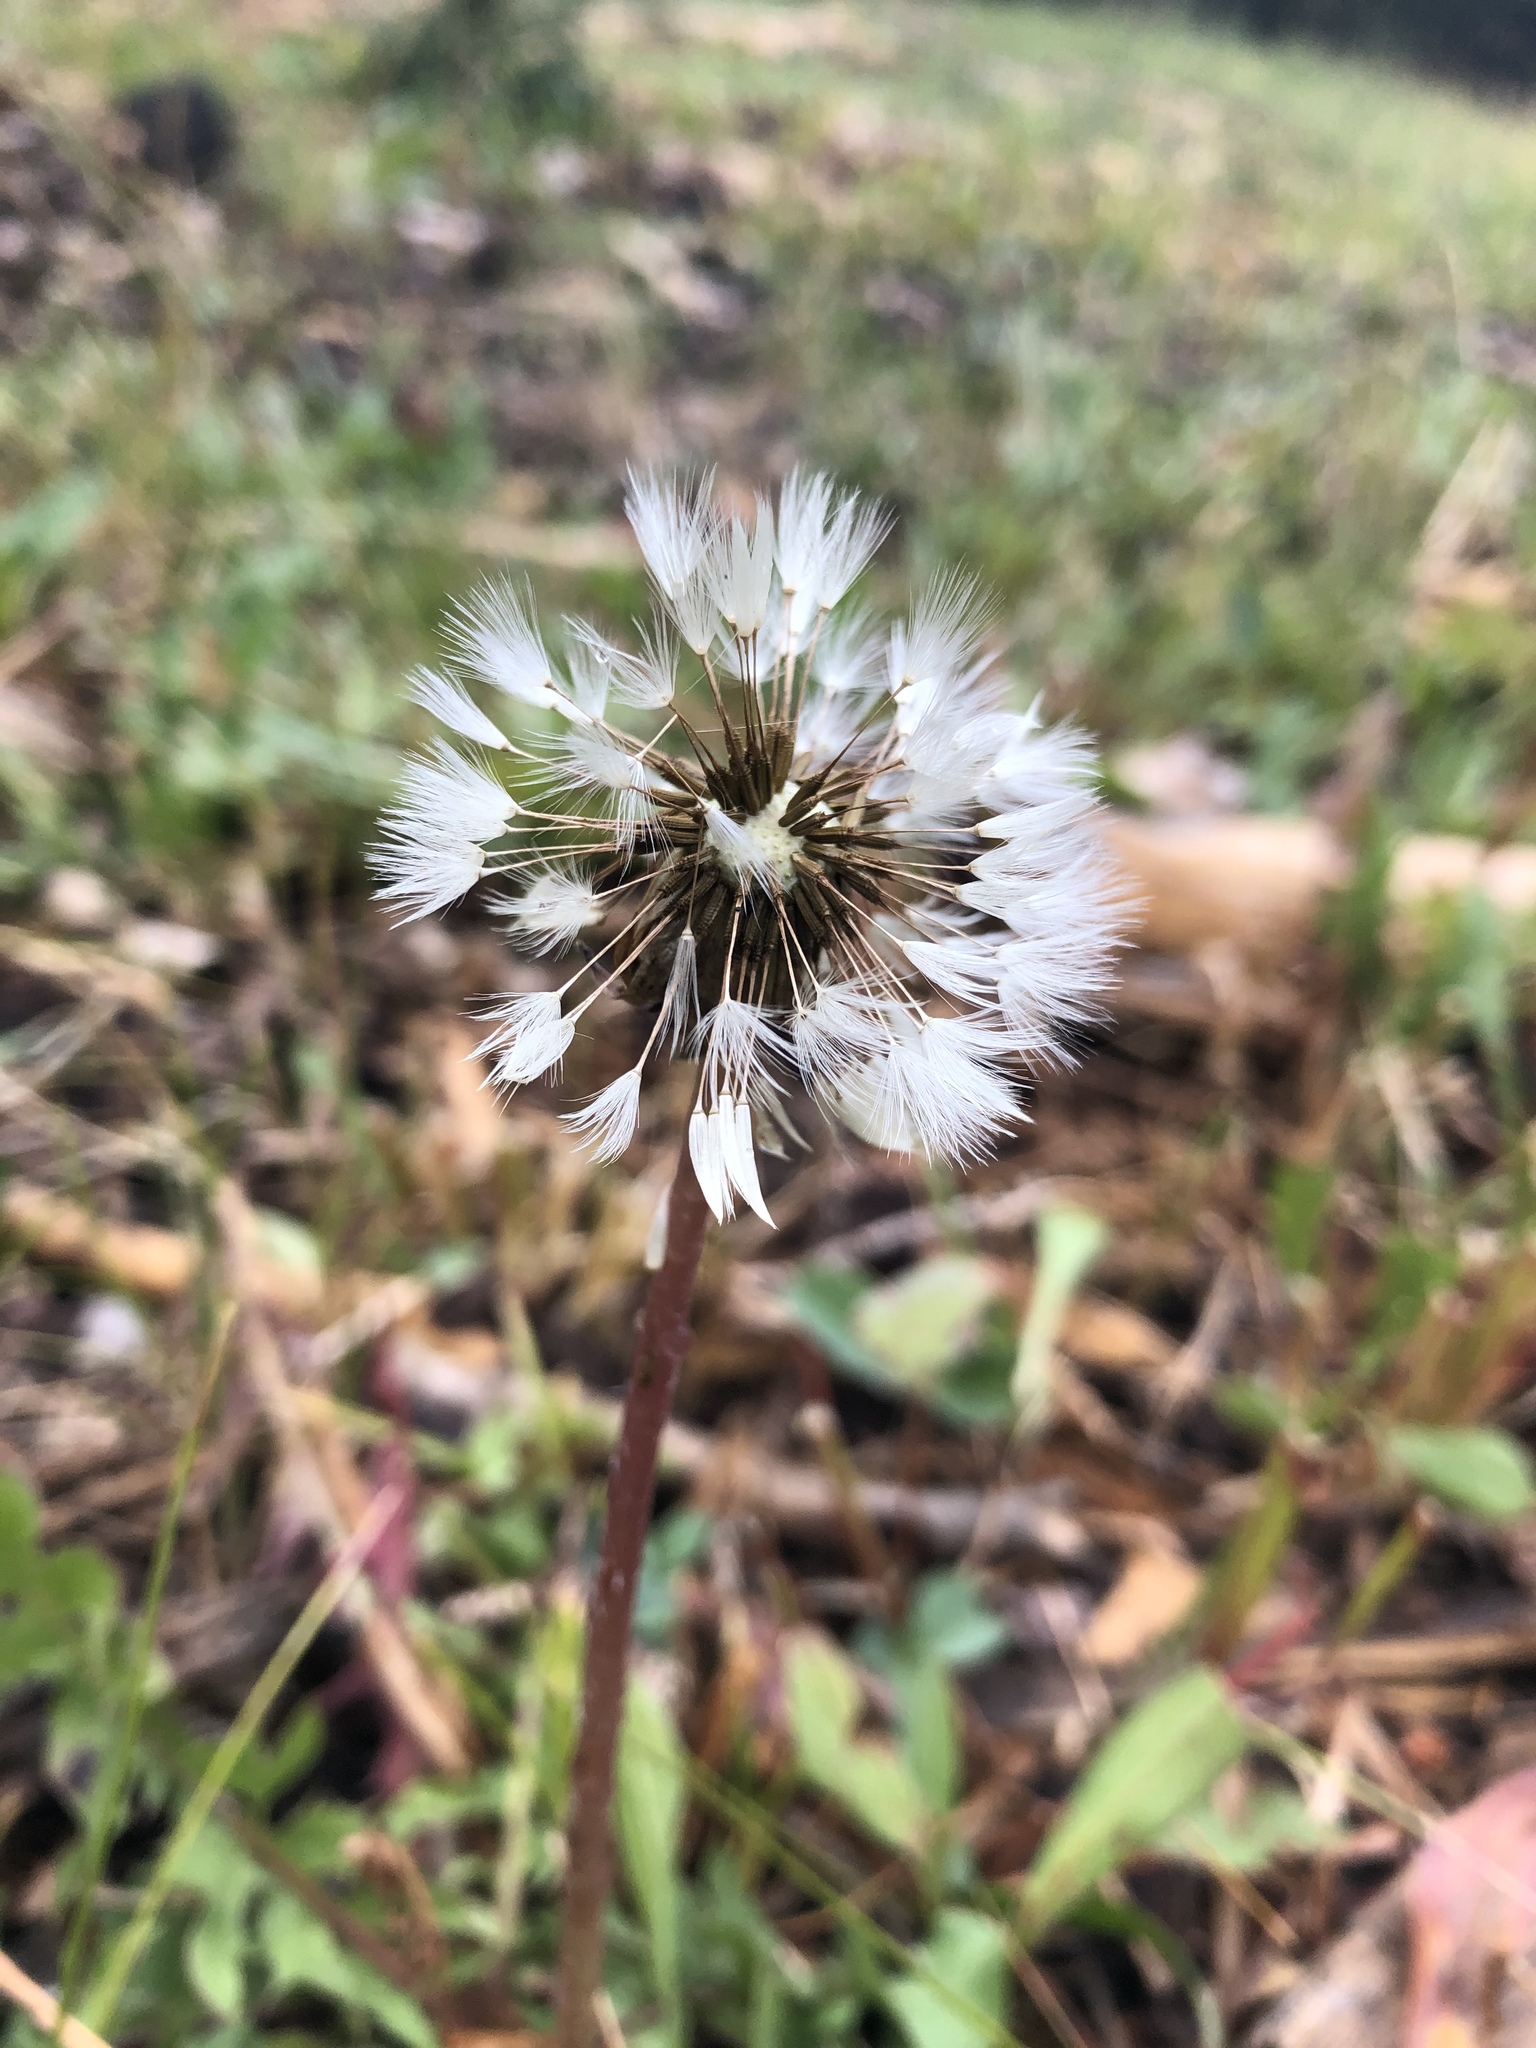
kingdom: Plantae
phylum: Tracheophyta
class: Magnoliopsida
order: Asterales
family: Asteraceae
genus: Taraxacum
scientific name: Taraxacum officinale
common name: Common dandelion
